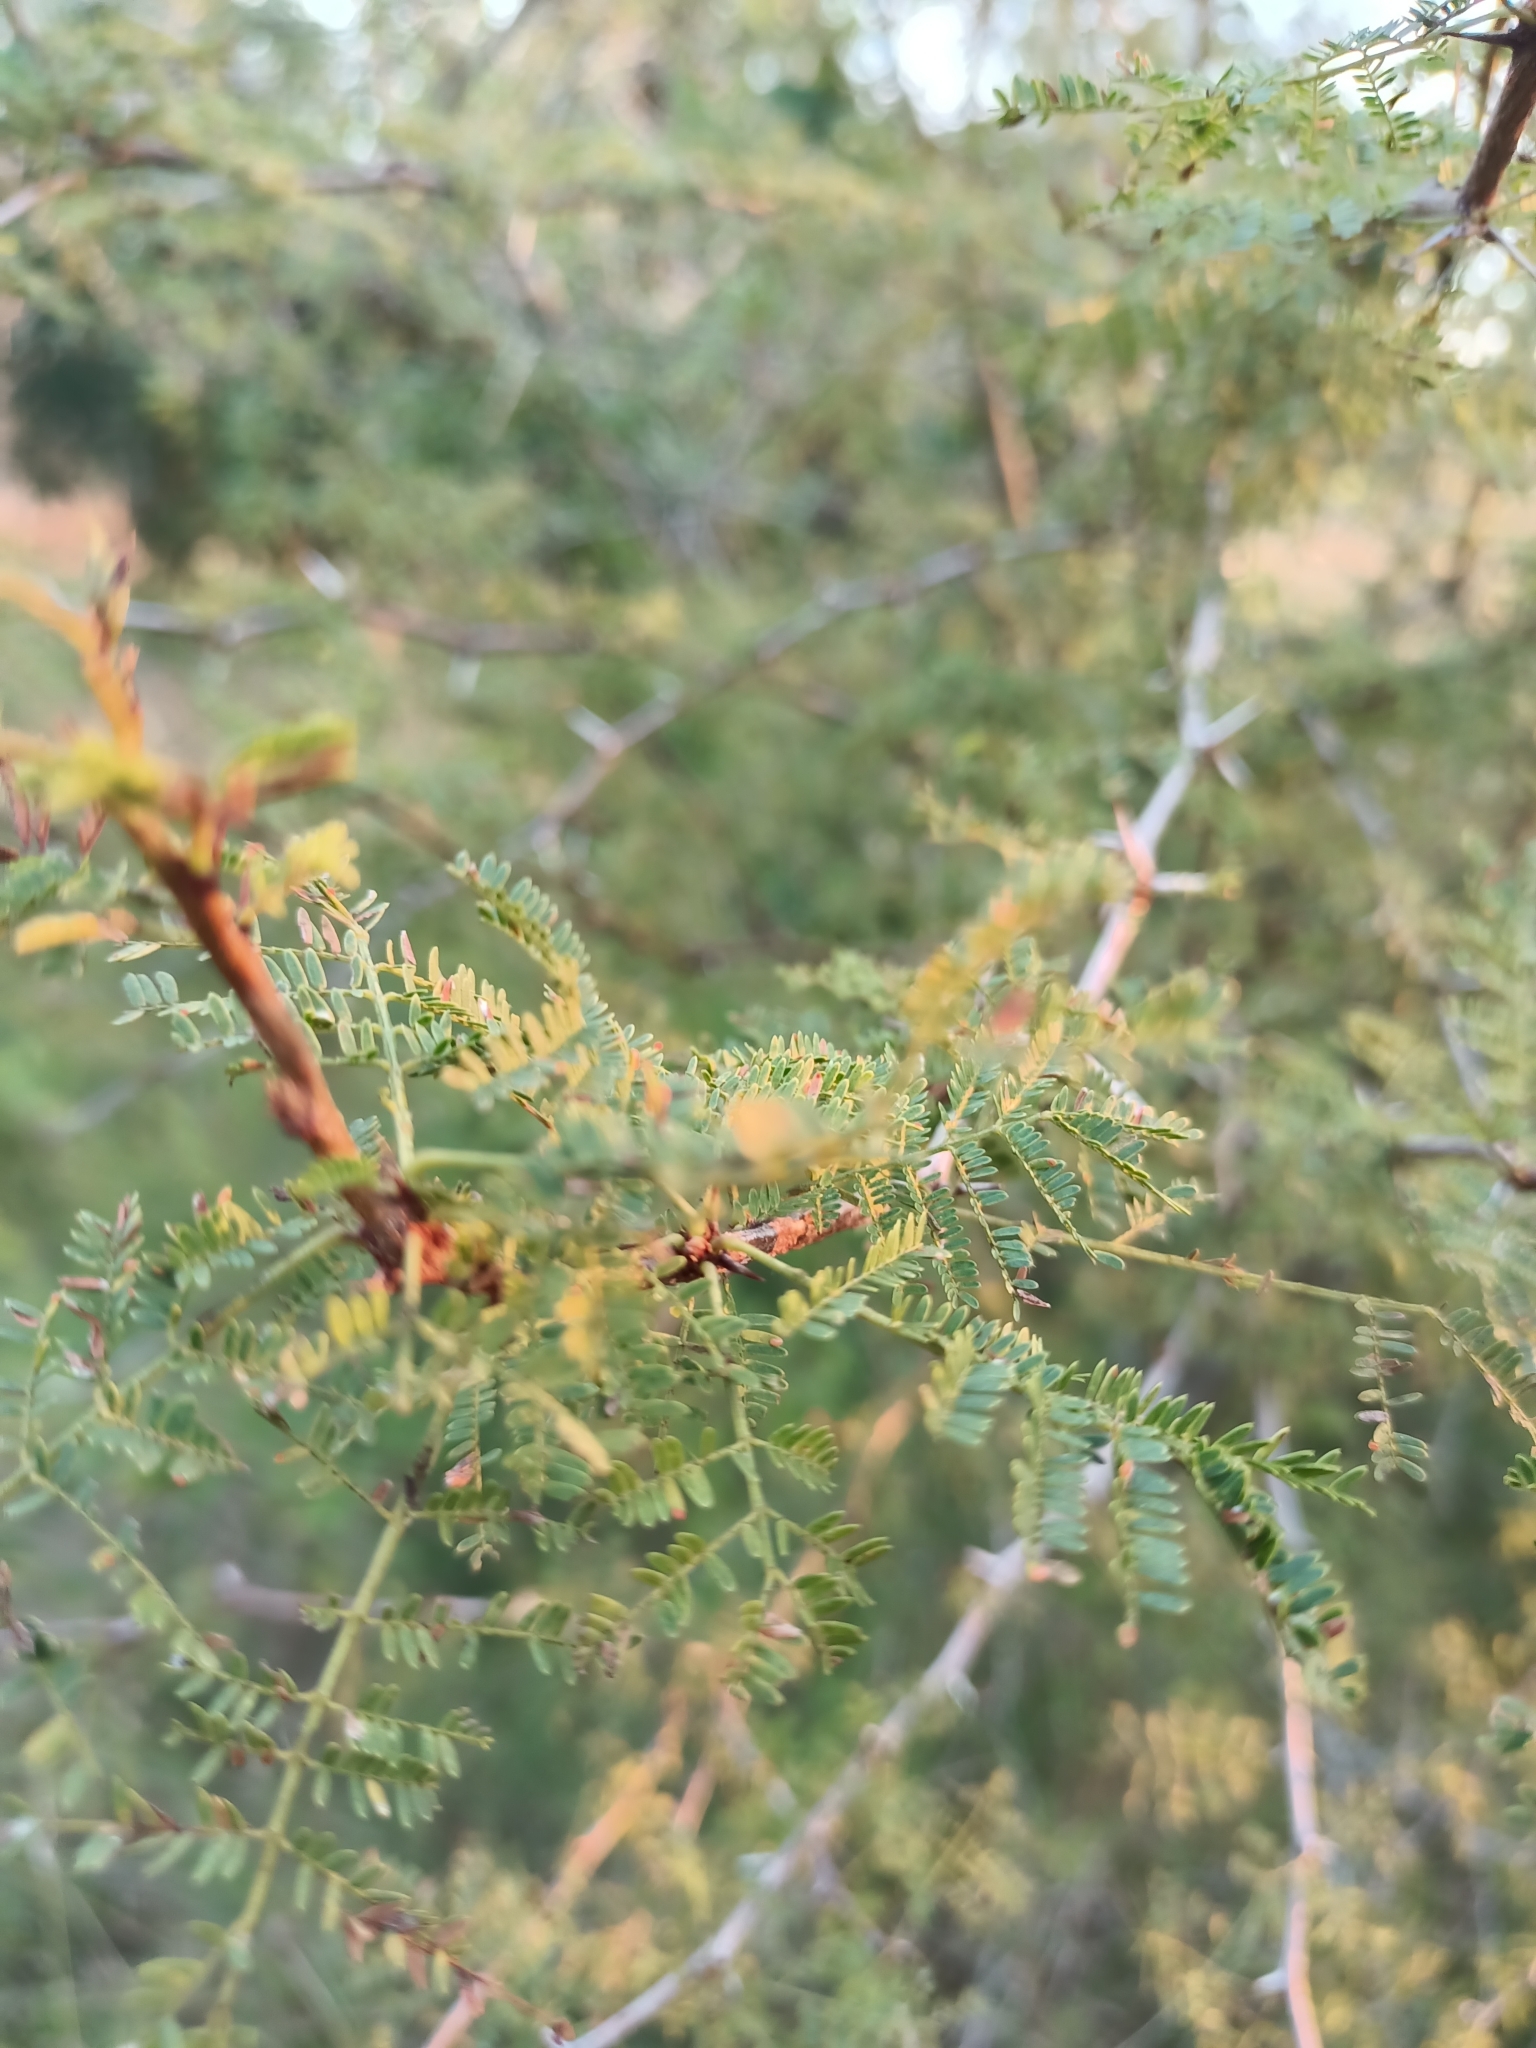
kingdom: Plantae
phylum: Tracheophyta
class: Magnoliopsida
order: Fabales
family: Fabaceae
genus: Vachellia
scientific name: Vachellia caven
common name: Roman cassie
